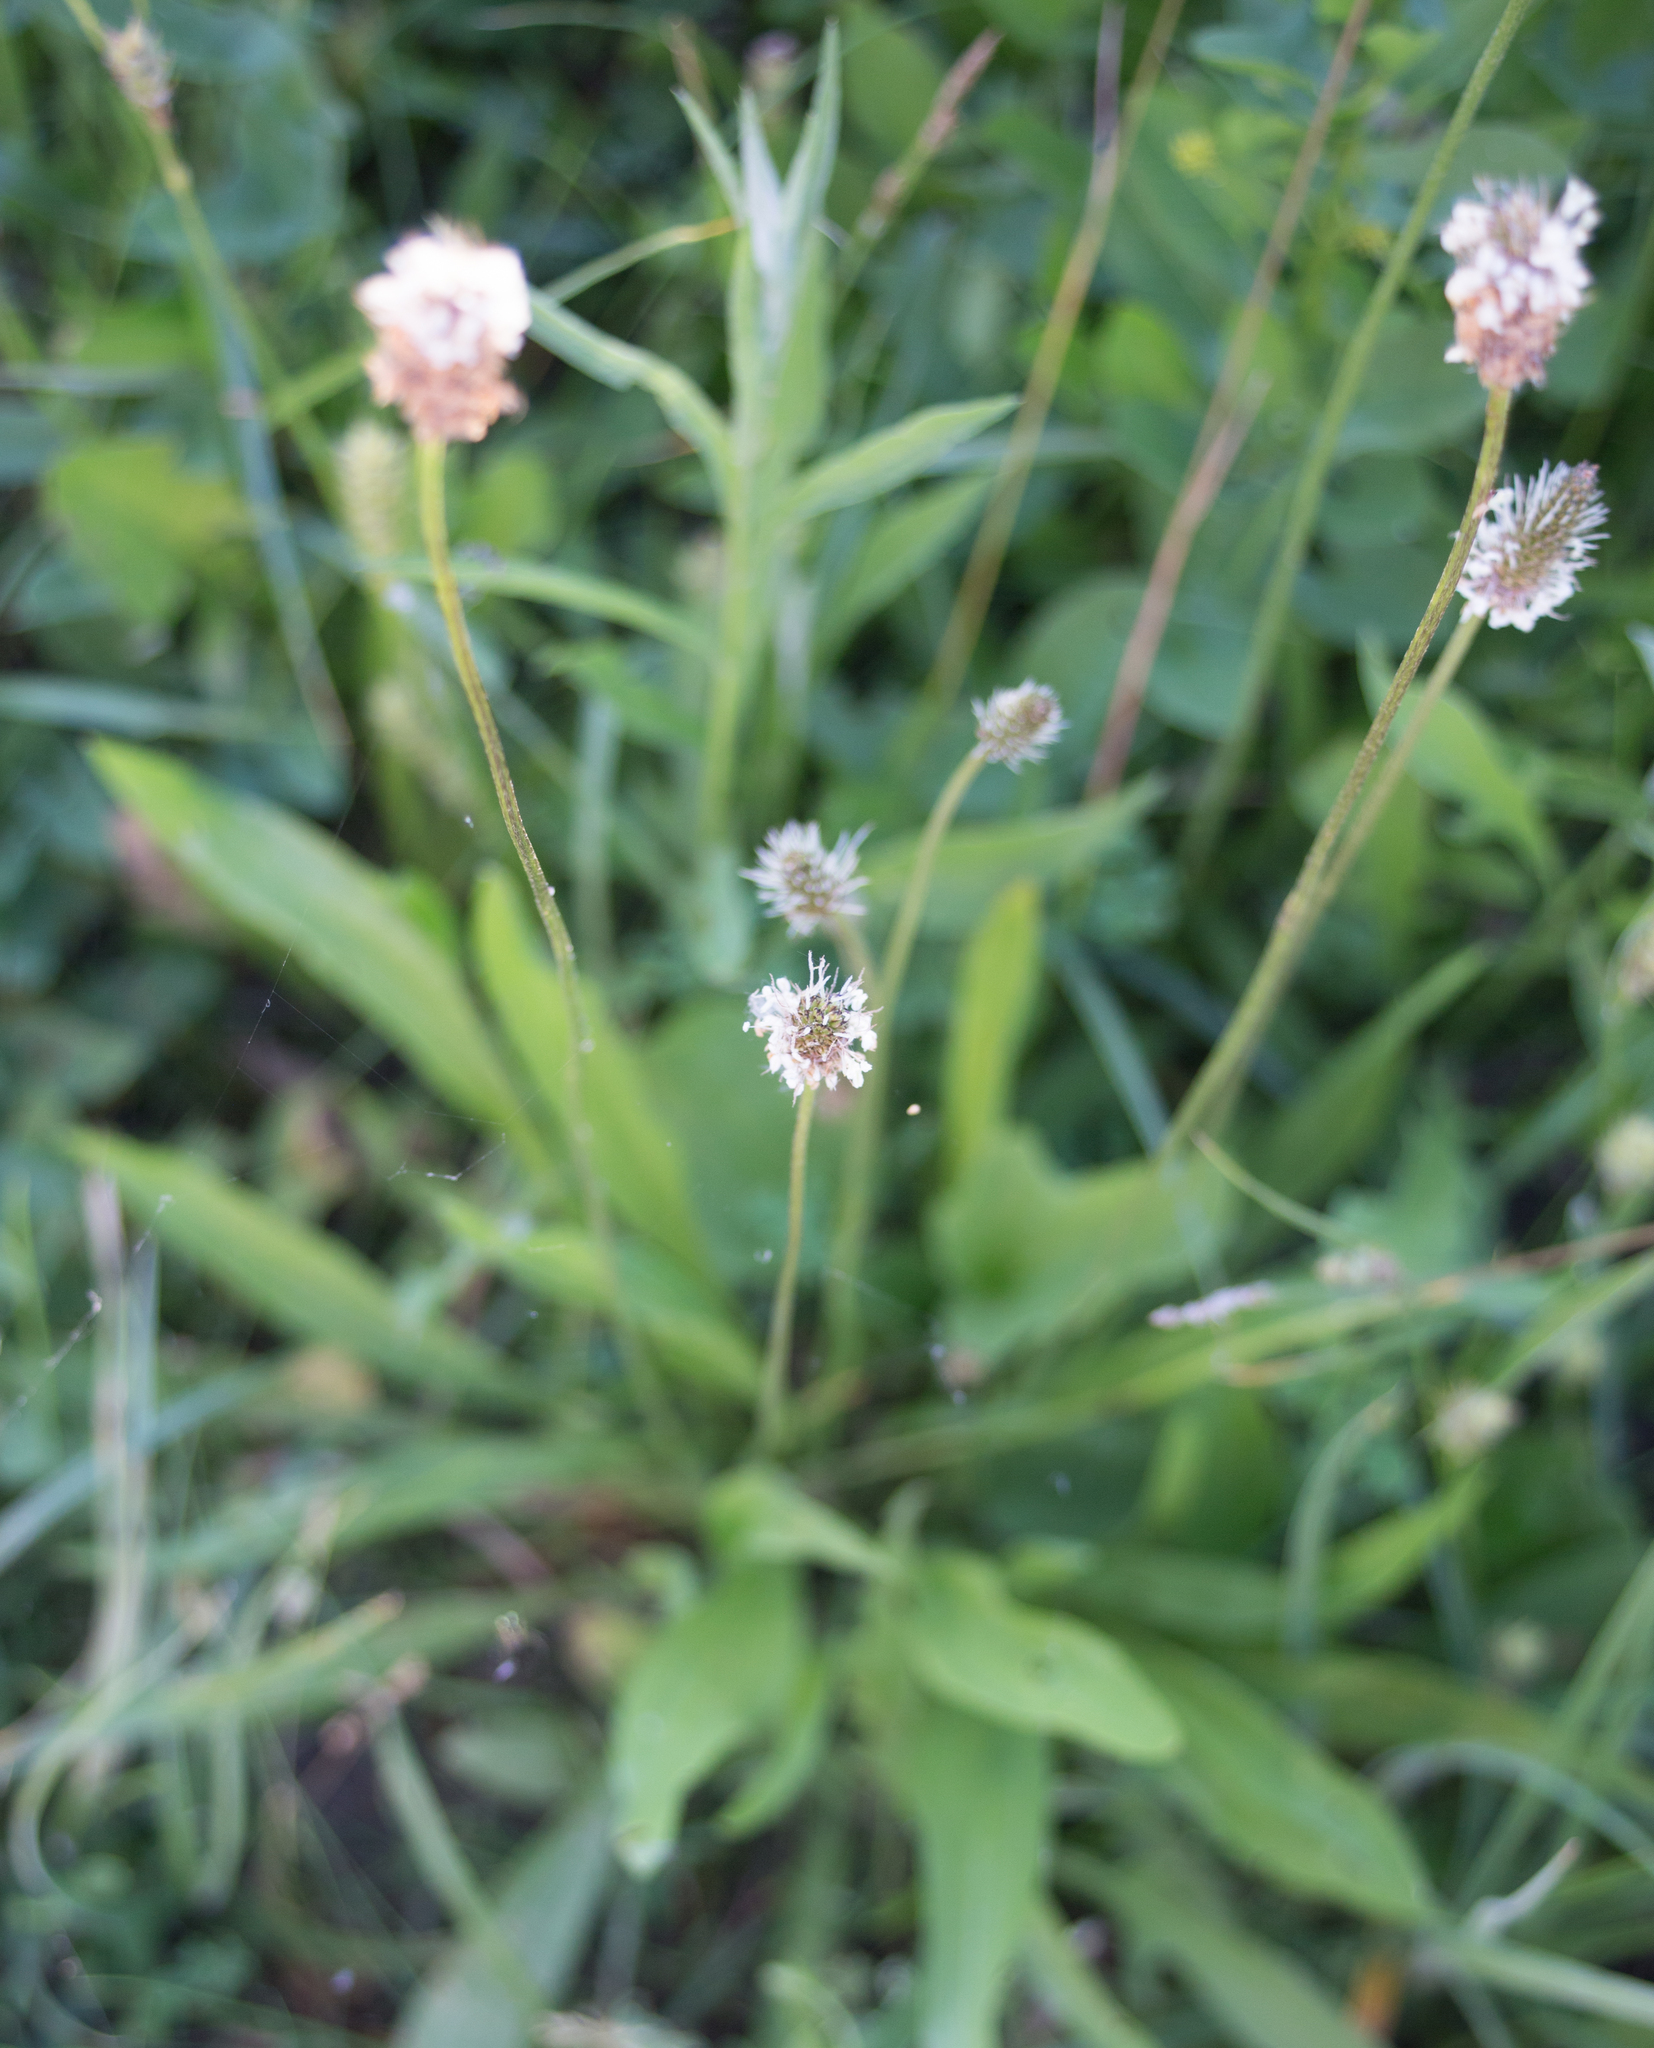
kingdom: Plantae
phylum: Tracheophyta
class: Magnoliopsida
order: Lamiales
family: Plantaginaceae
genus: Plantago
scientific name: Plantago lanceolata
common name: Ribwort plantain
